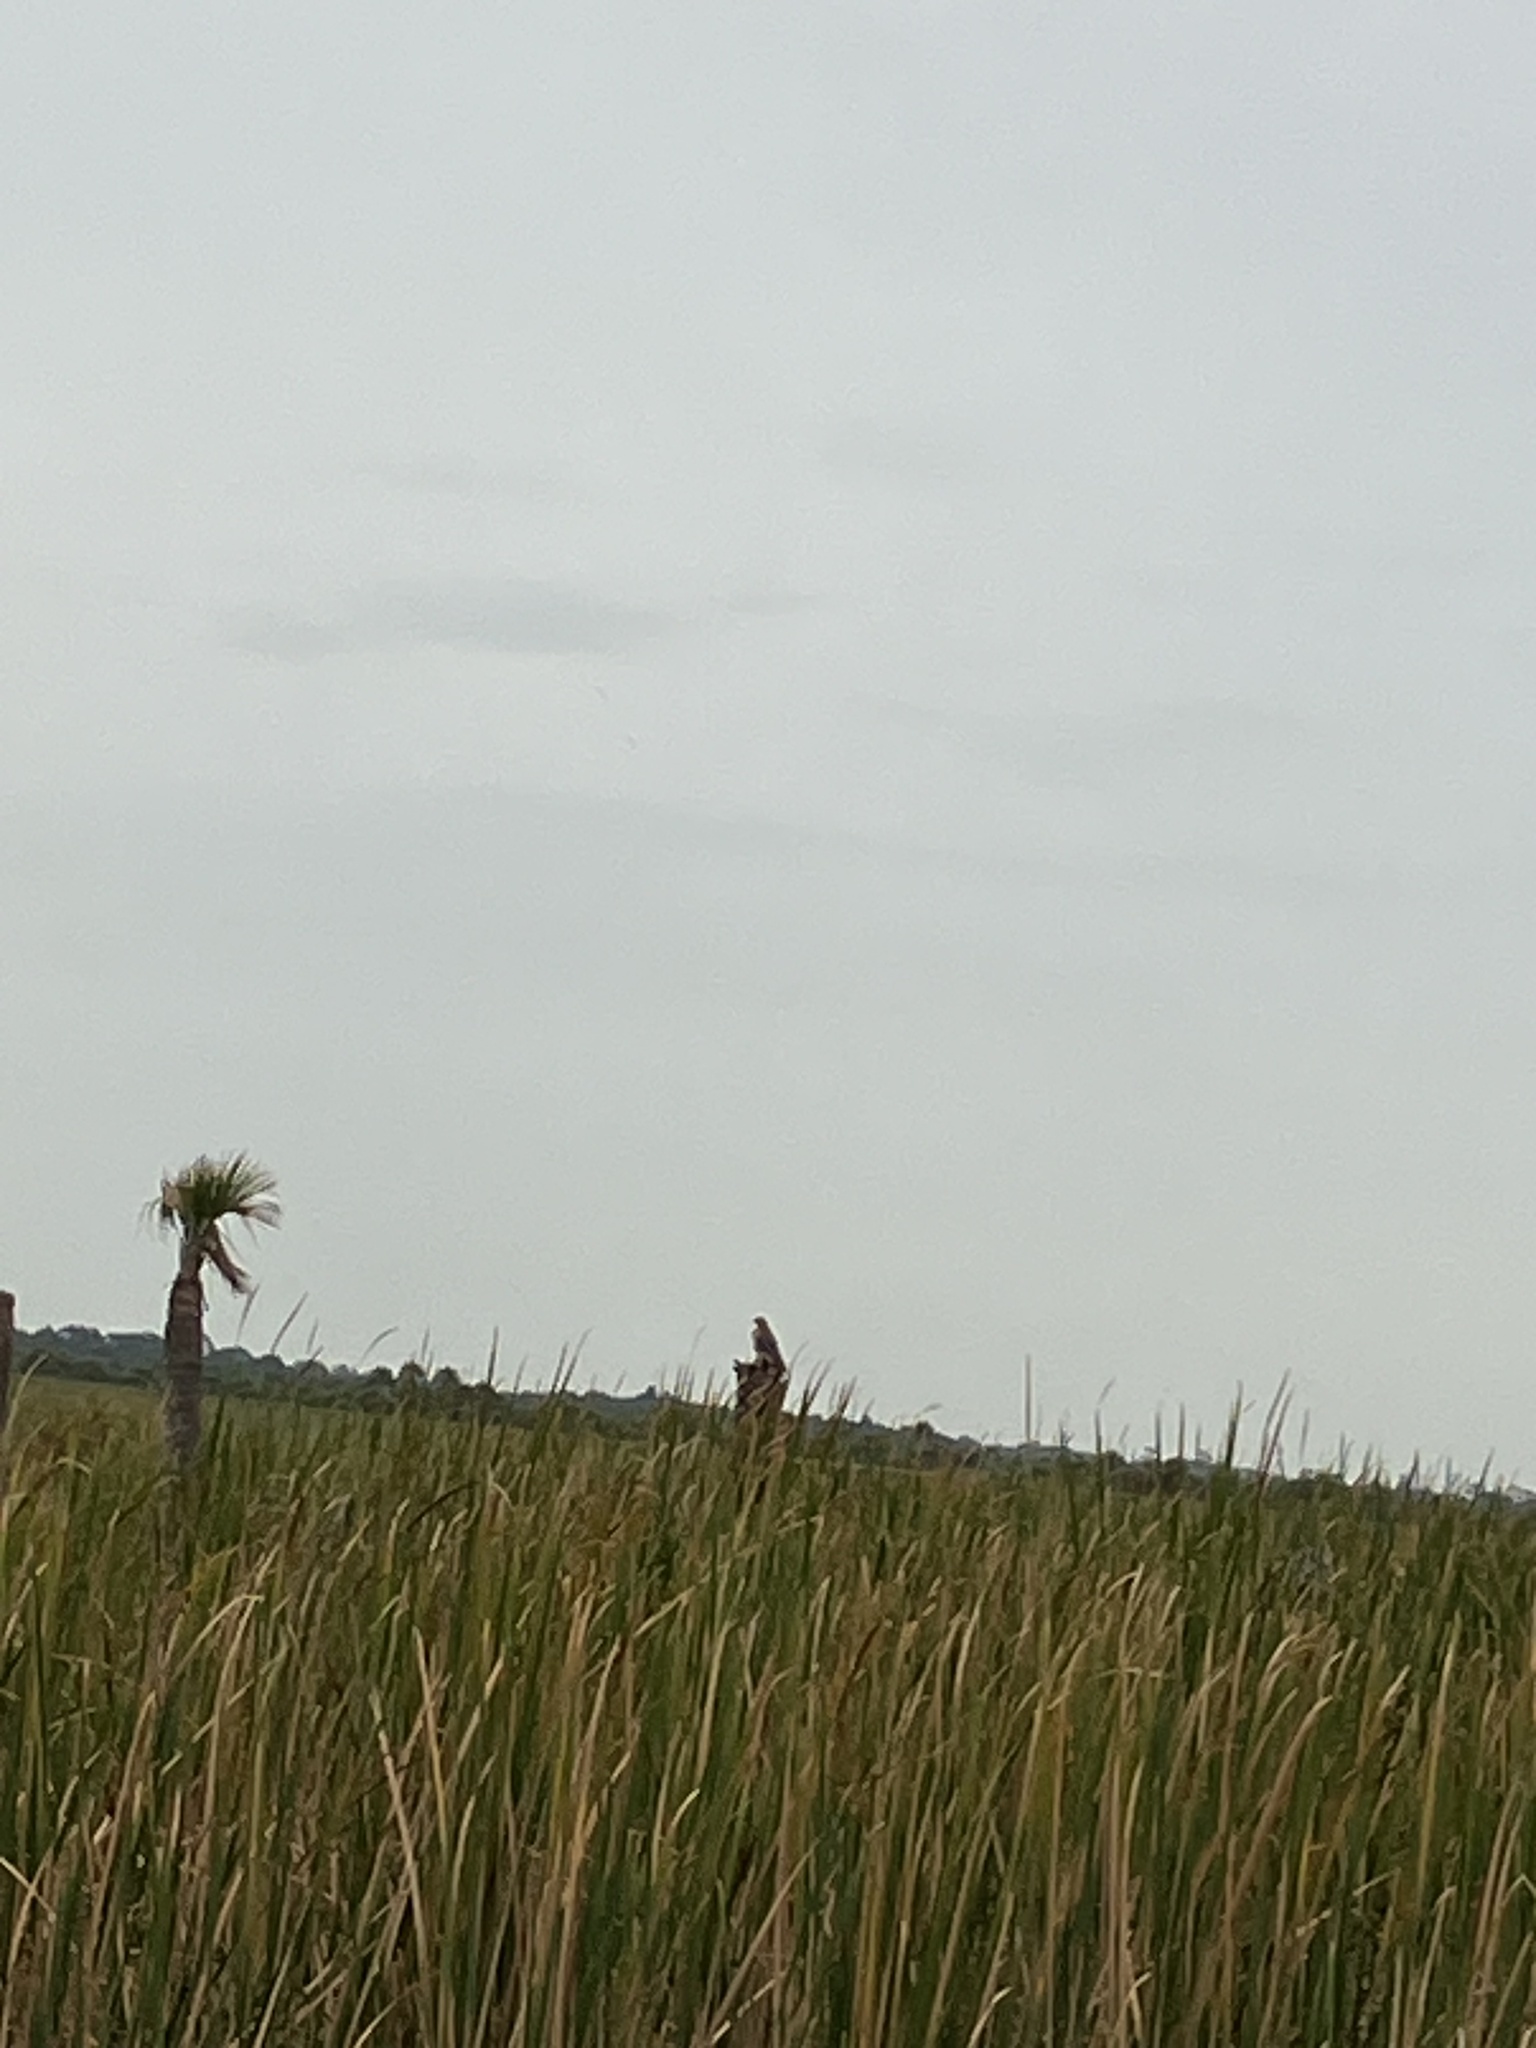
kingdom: Animalia
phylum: Chordata
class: Aves
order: Accipitriformes
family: Accipitridae
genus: Buteo
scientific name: Buteo lineatus
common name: Red-shouldered hawk
